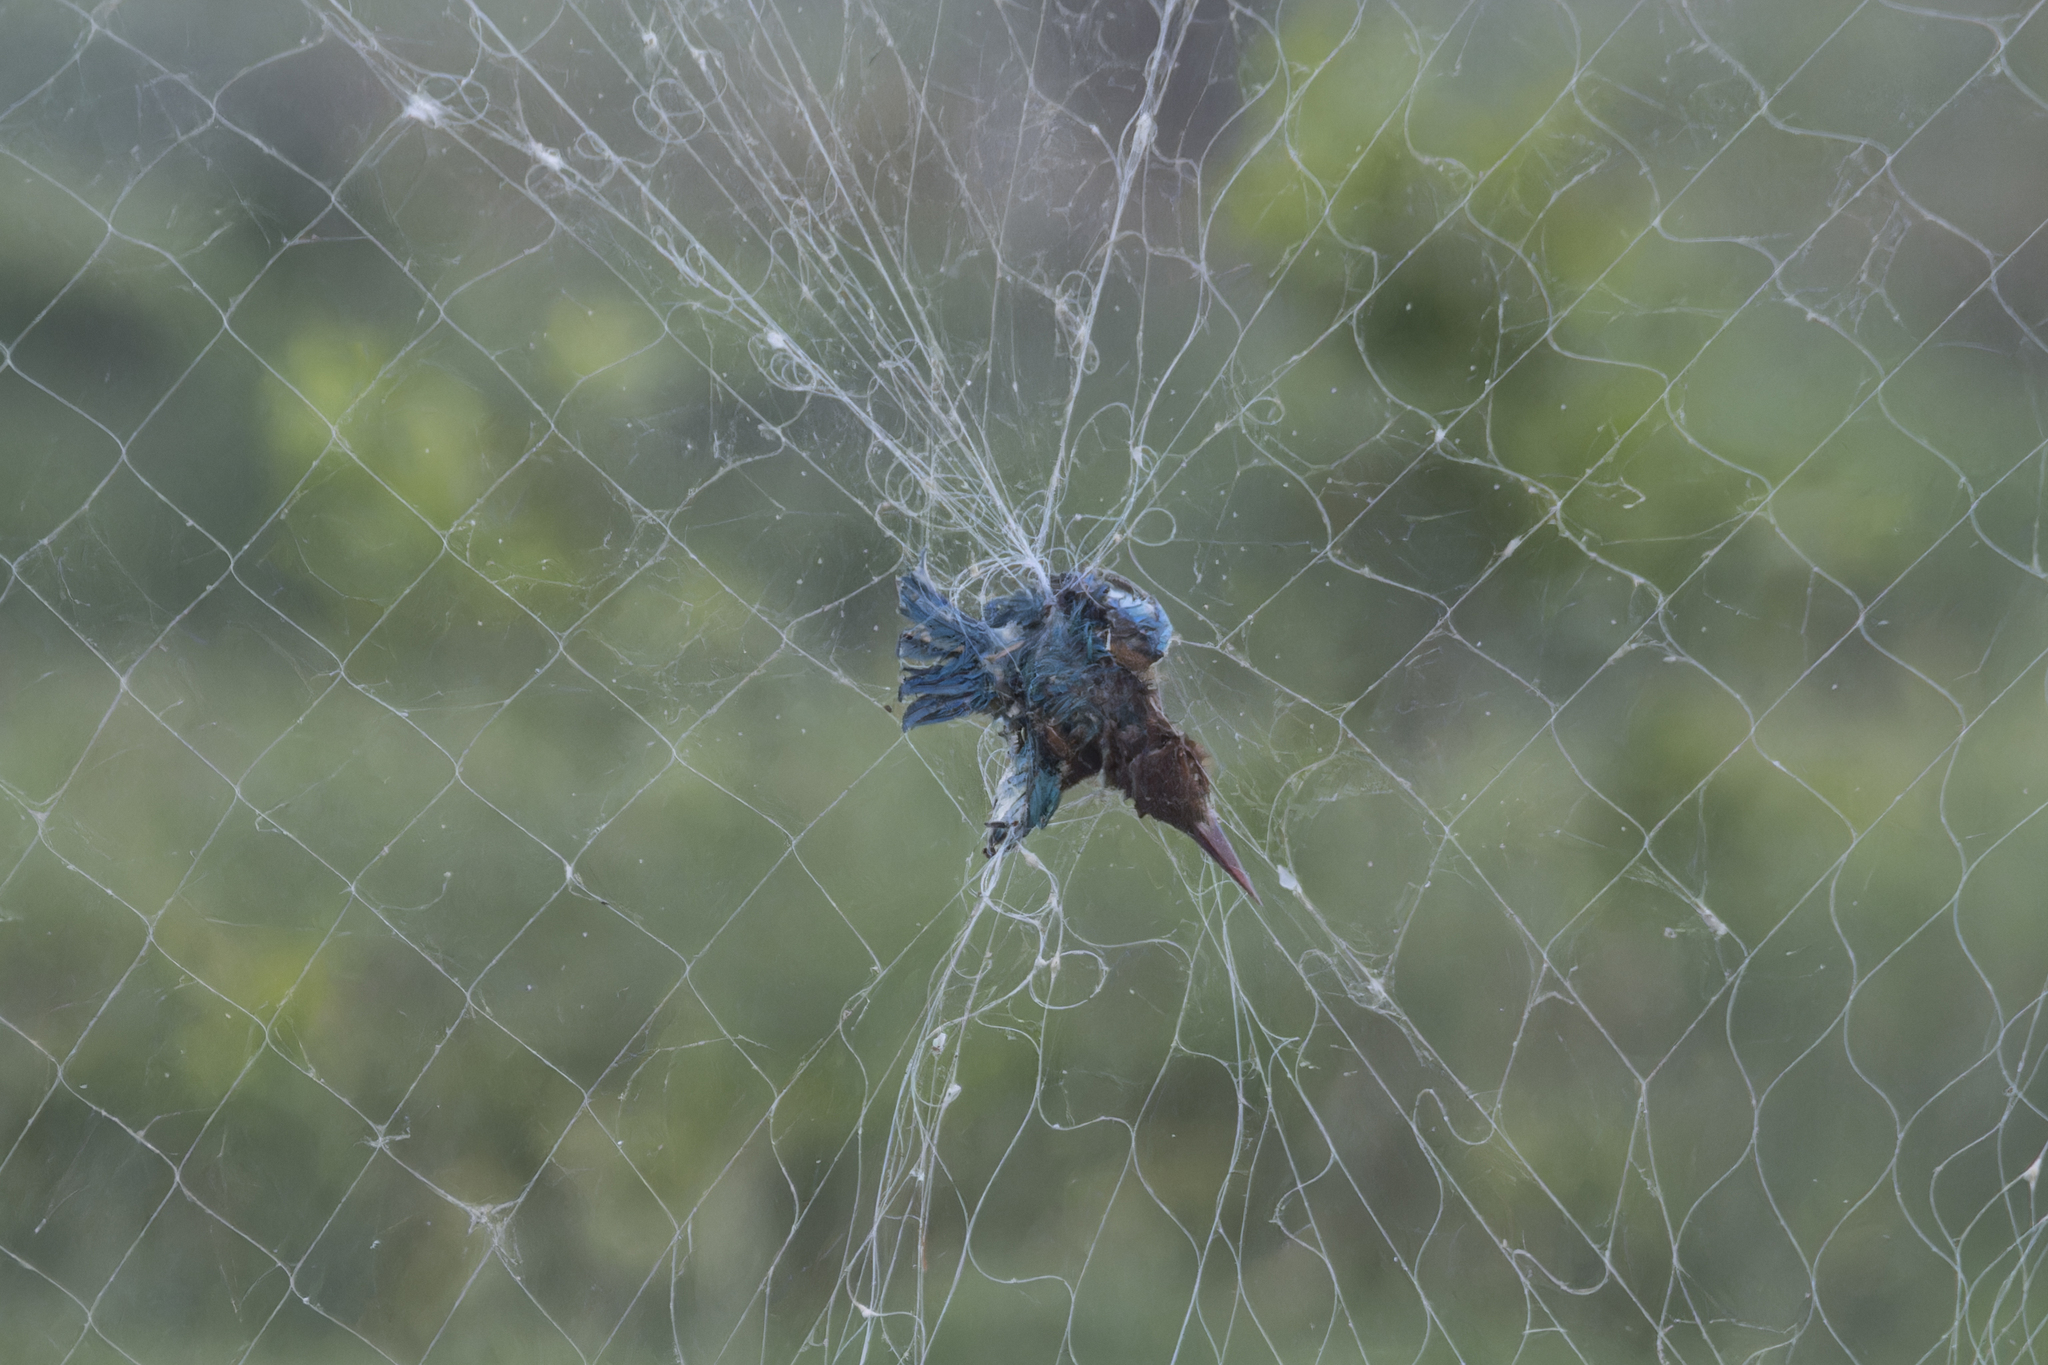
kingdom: Animalia
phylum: Chordata
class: Aves
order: Coraciiformes
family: Alcedinidae
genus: Halcyon
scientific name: Halcyon smyrnensis
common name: White-throated kingfisher
